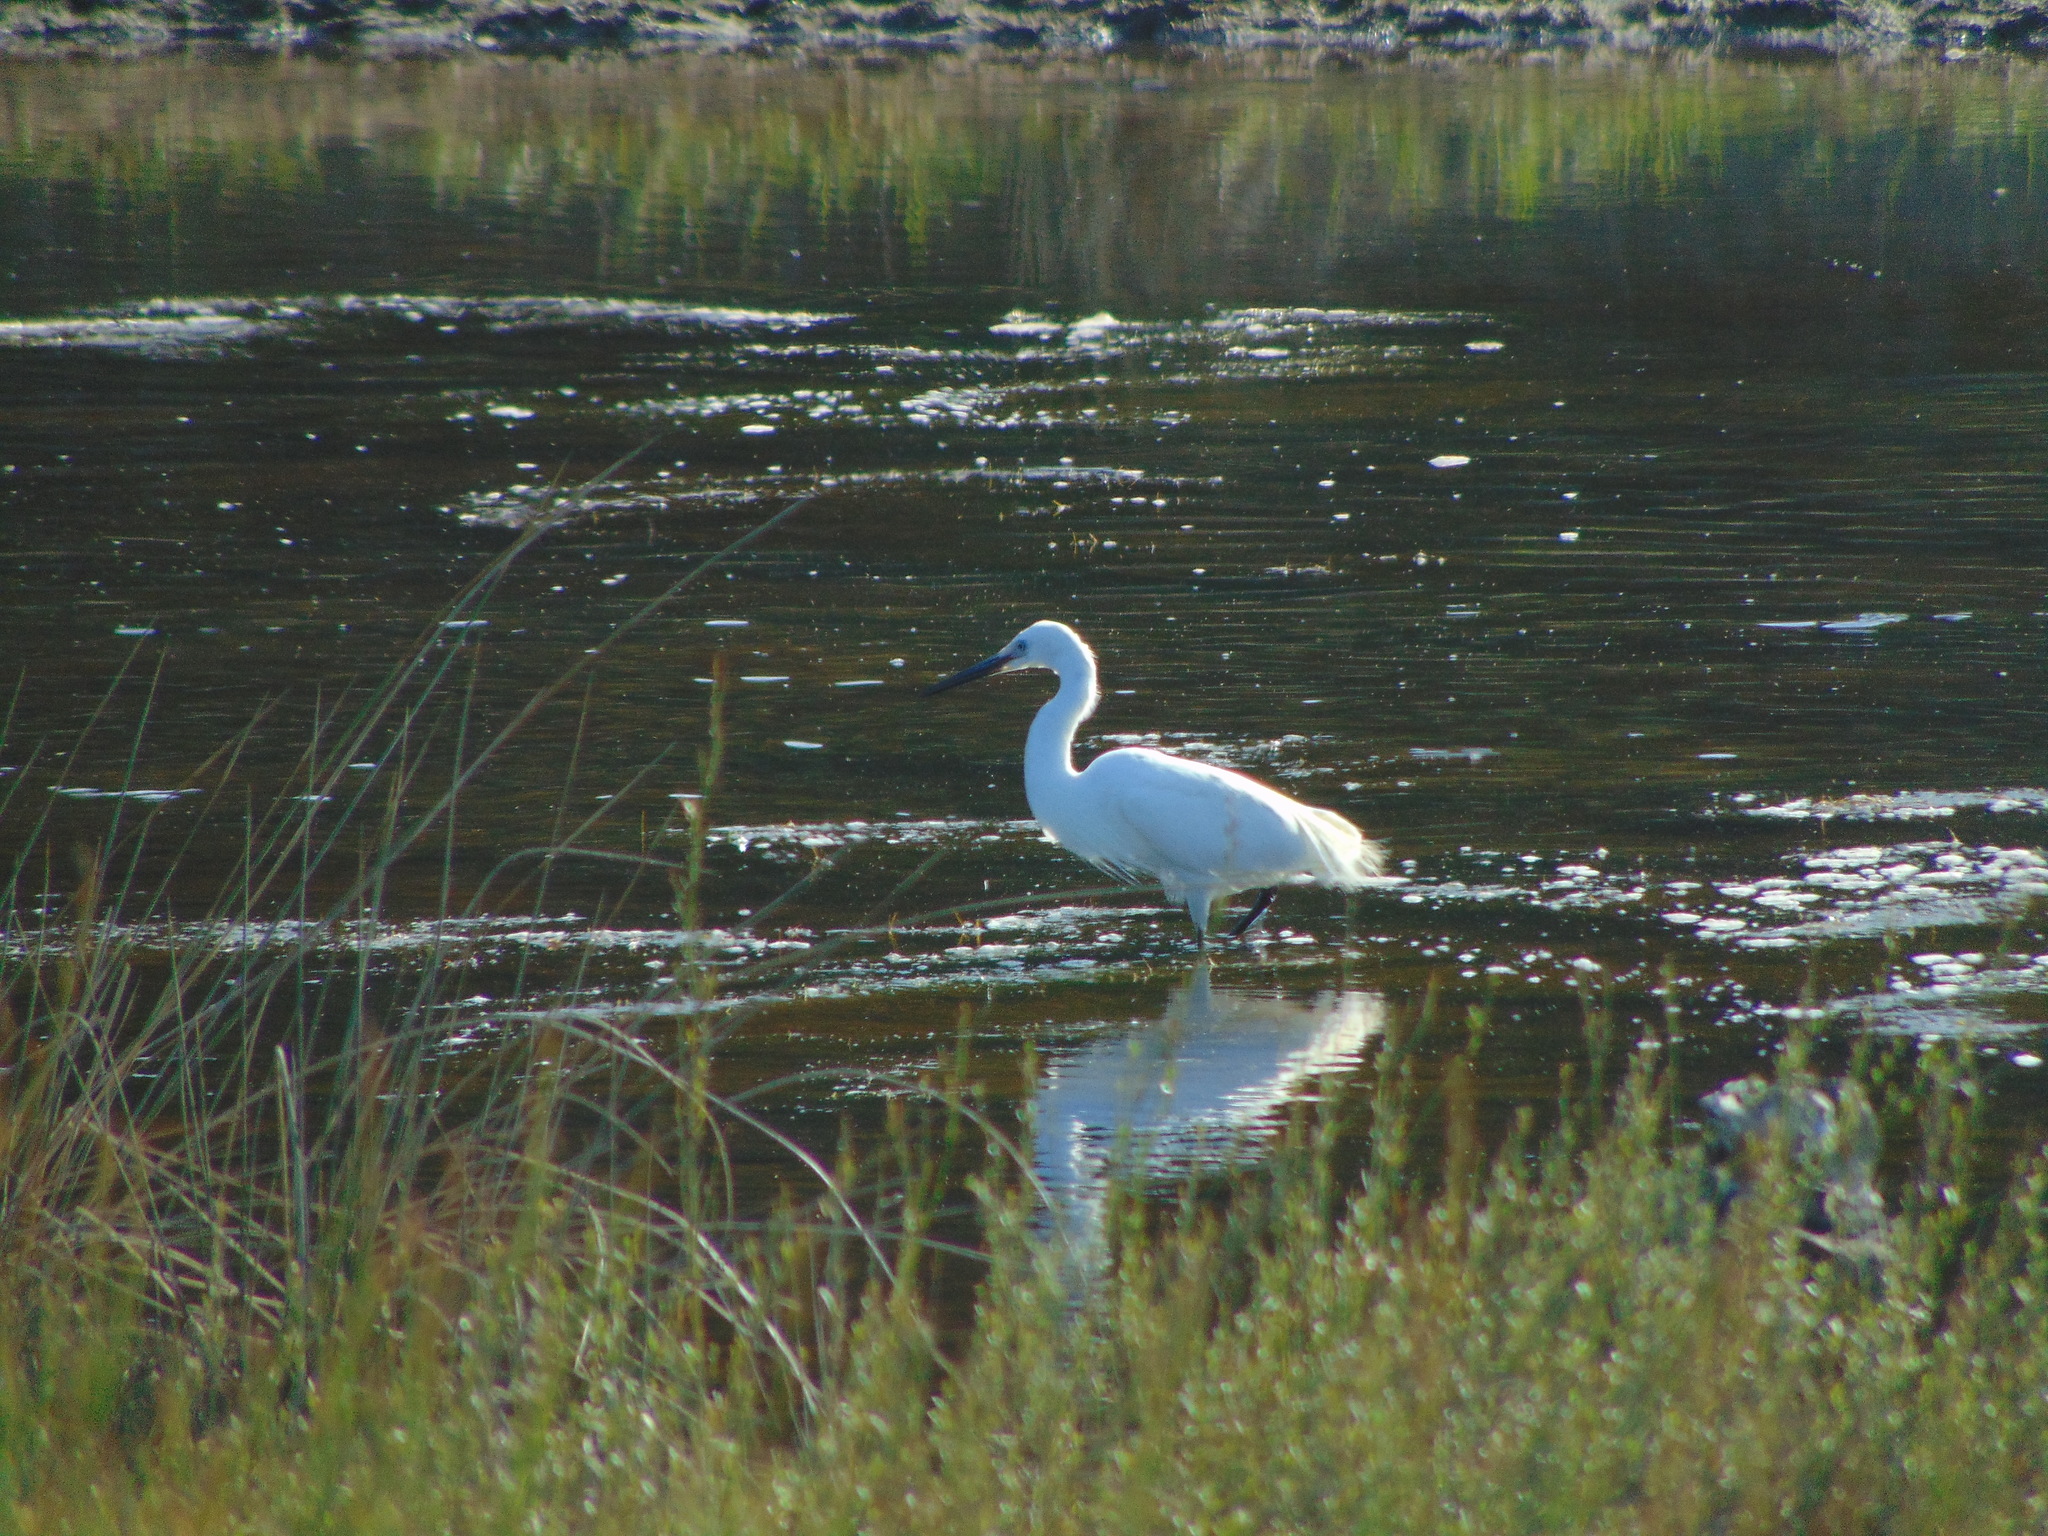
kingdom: Animalia
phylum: Chordata
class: Aves
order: Pelecaniformes
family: Ardeidae
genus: Egretta
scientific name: Egretta garzetta
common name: Little egret
